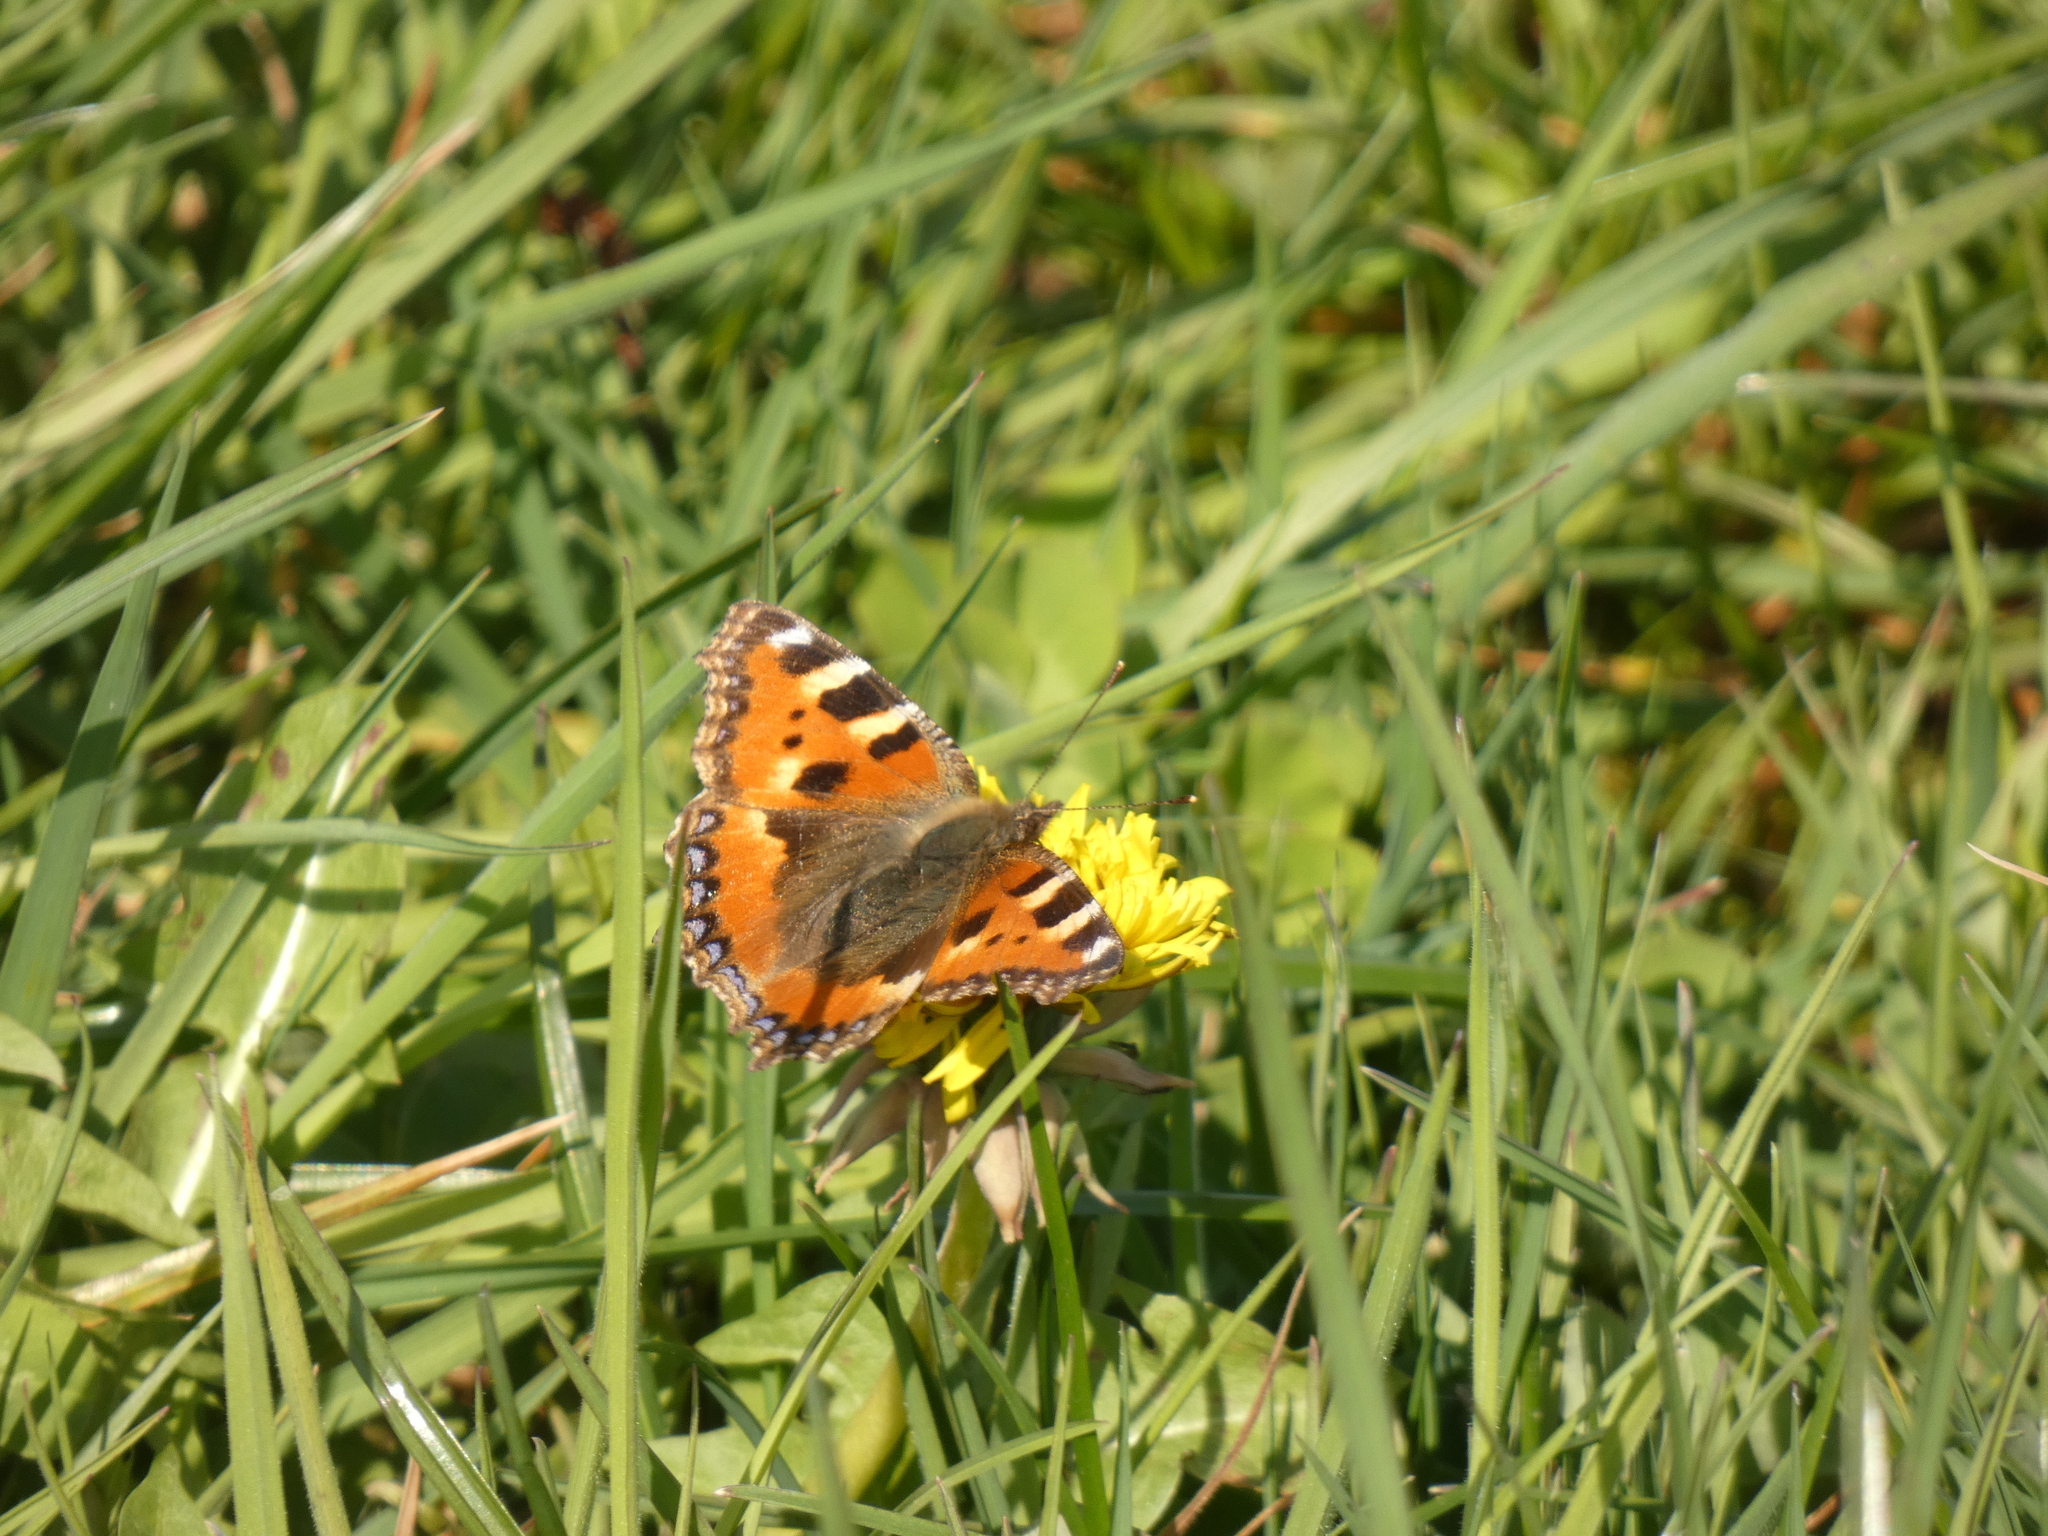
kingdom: Animalia
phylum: Arthropoda
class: Insecta
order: Lepidoptera
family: Nymphalidae
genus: Aglais
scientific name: Aglais urticae
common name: Small tortoiseshell
